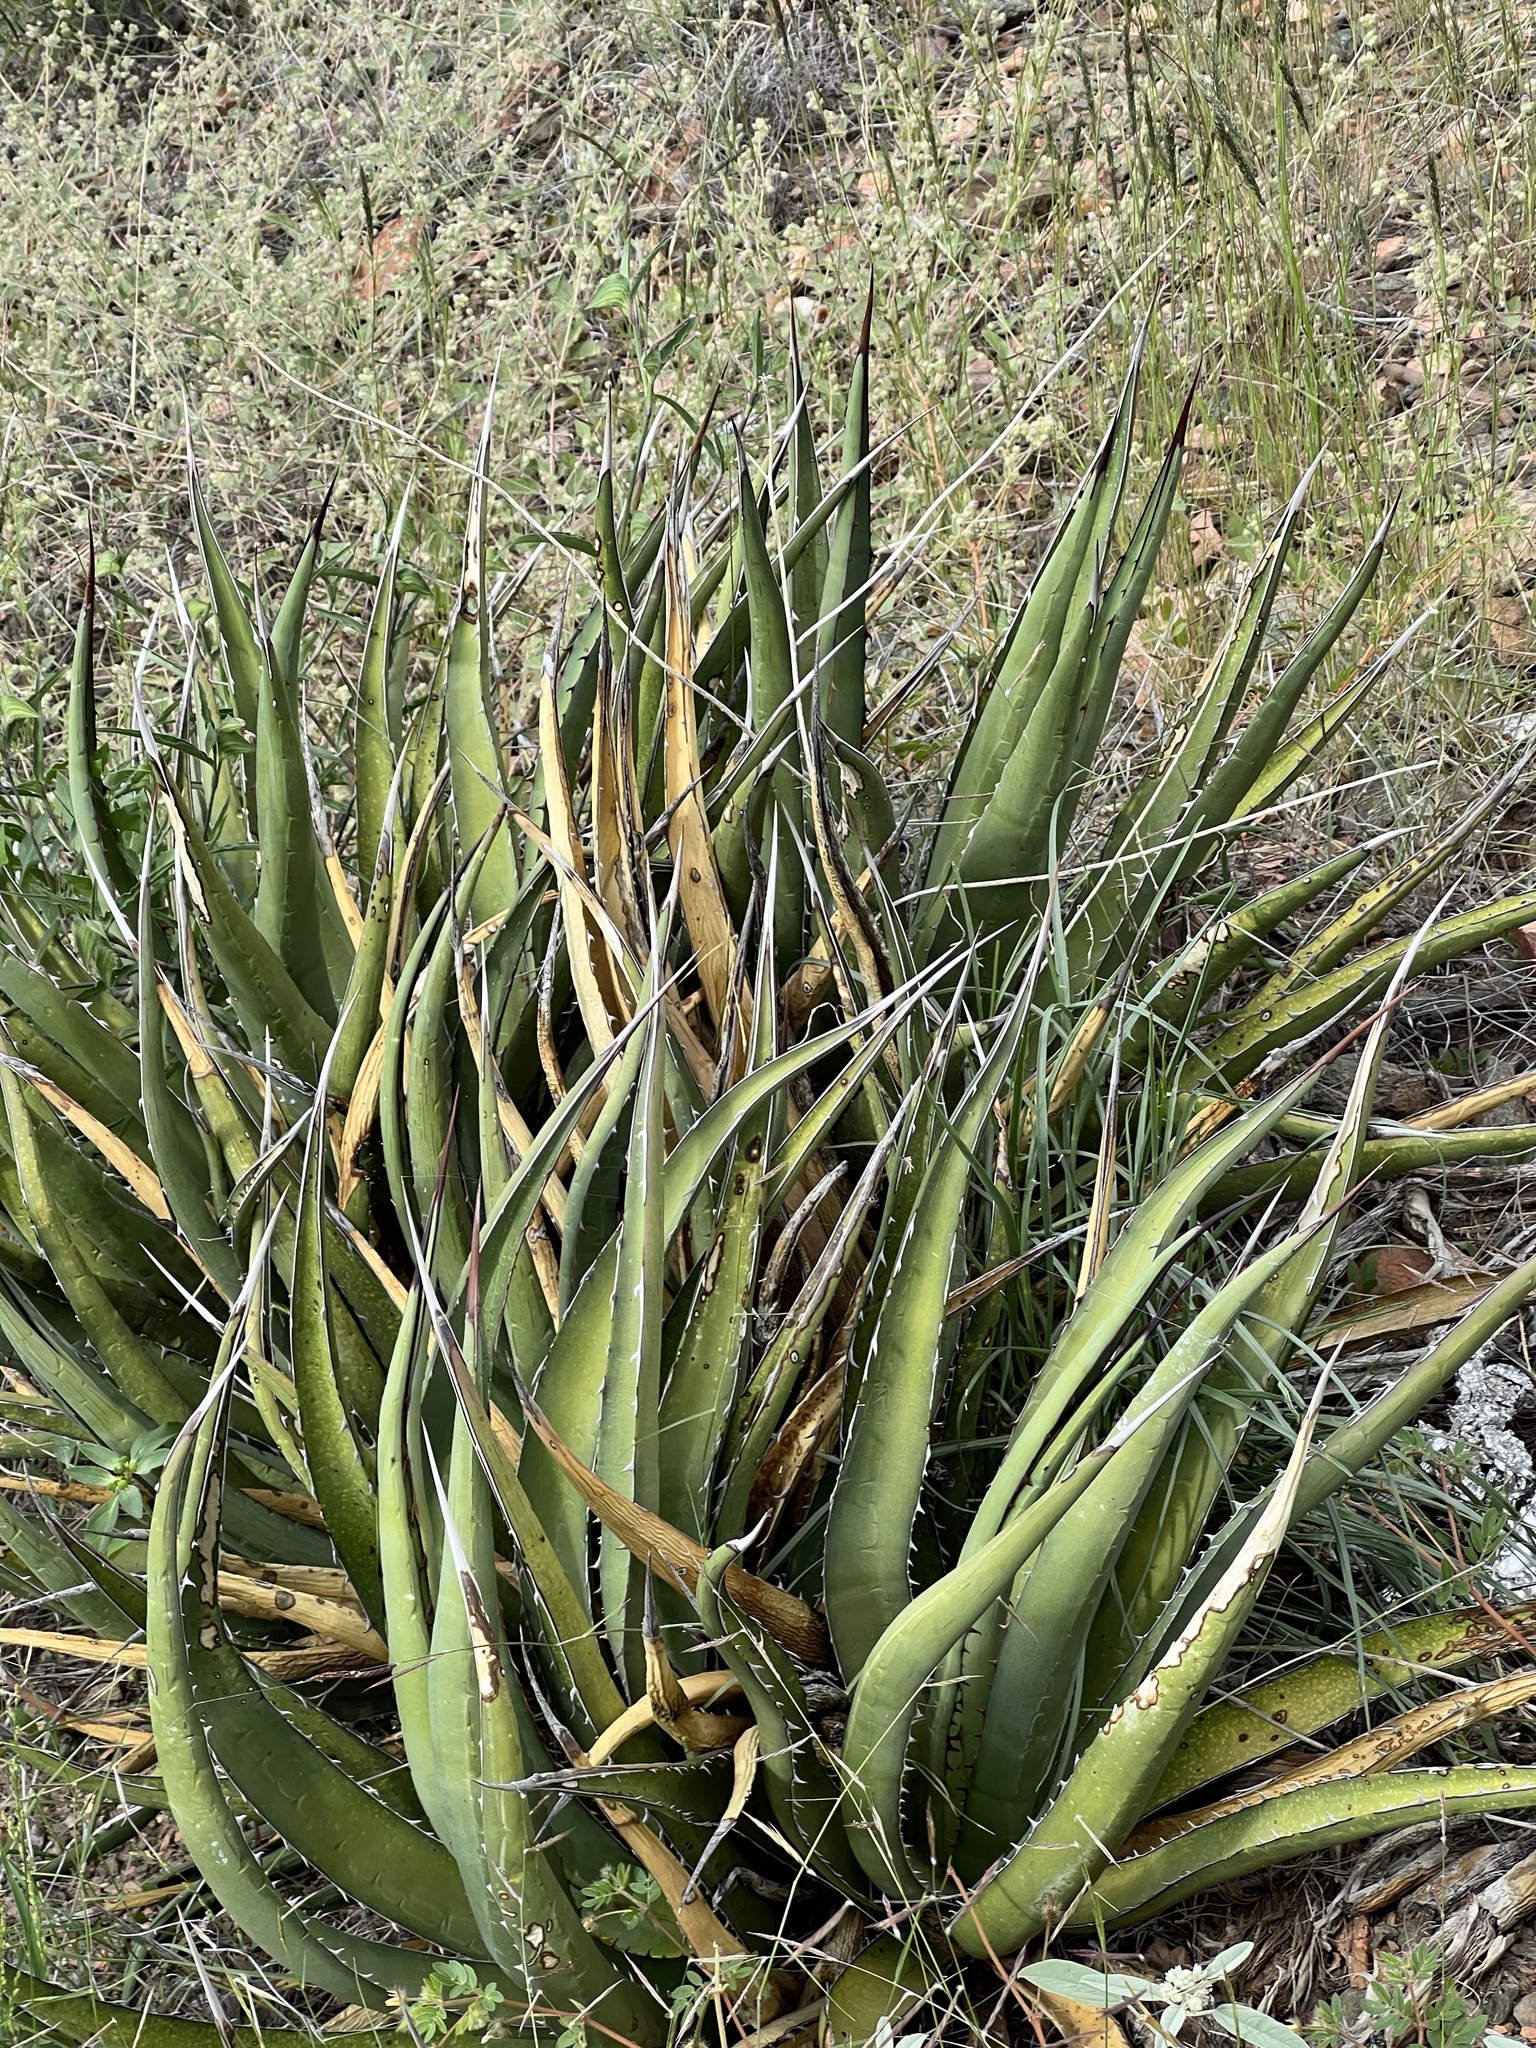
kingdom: Plantae
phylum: Tracheophyta
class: Liliopsida
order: Asparagales
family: Asparagaceae
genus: Agave
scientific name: Agave lechuguilla
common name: Lecheguilla agave
